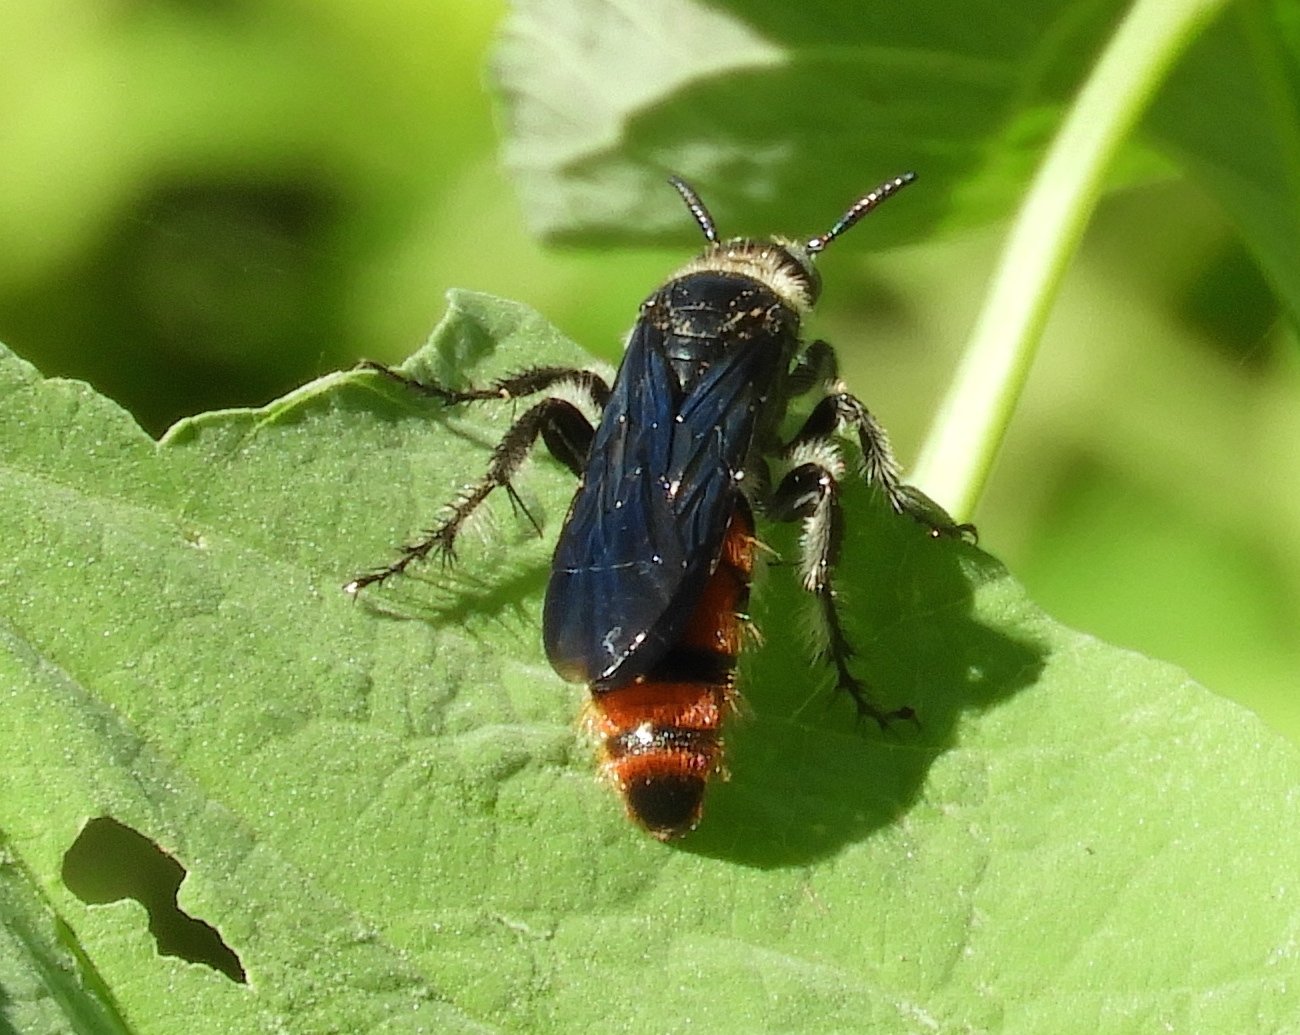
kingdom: Animalia
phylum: Arthropoda
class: Insecta
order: Hymenoptera
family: Scoliidae
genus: Dielis
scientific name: Dielis tolteca
